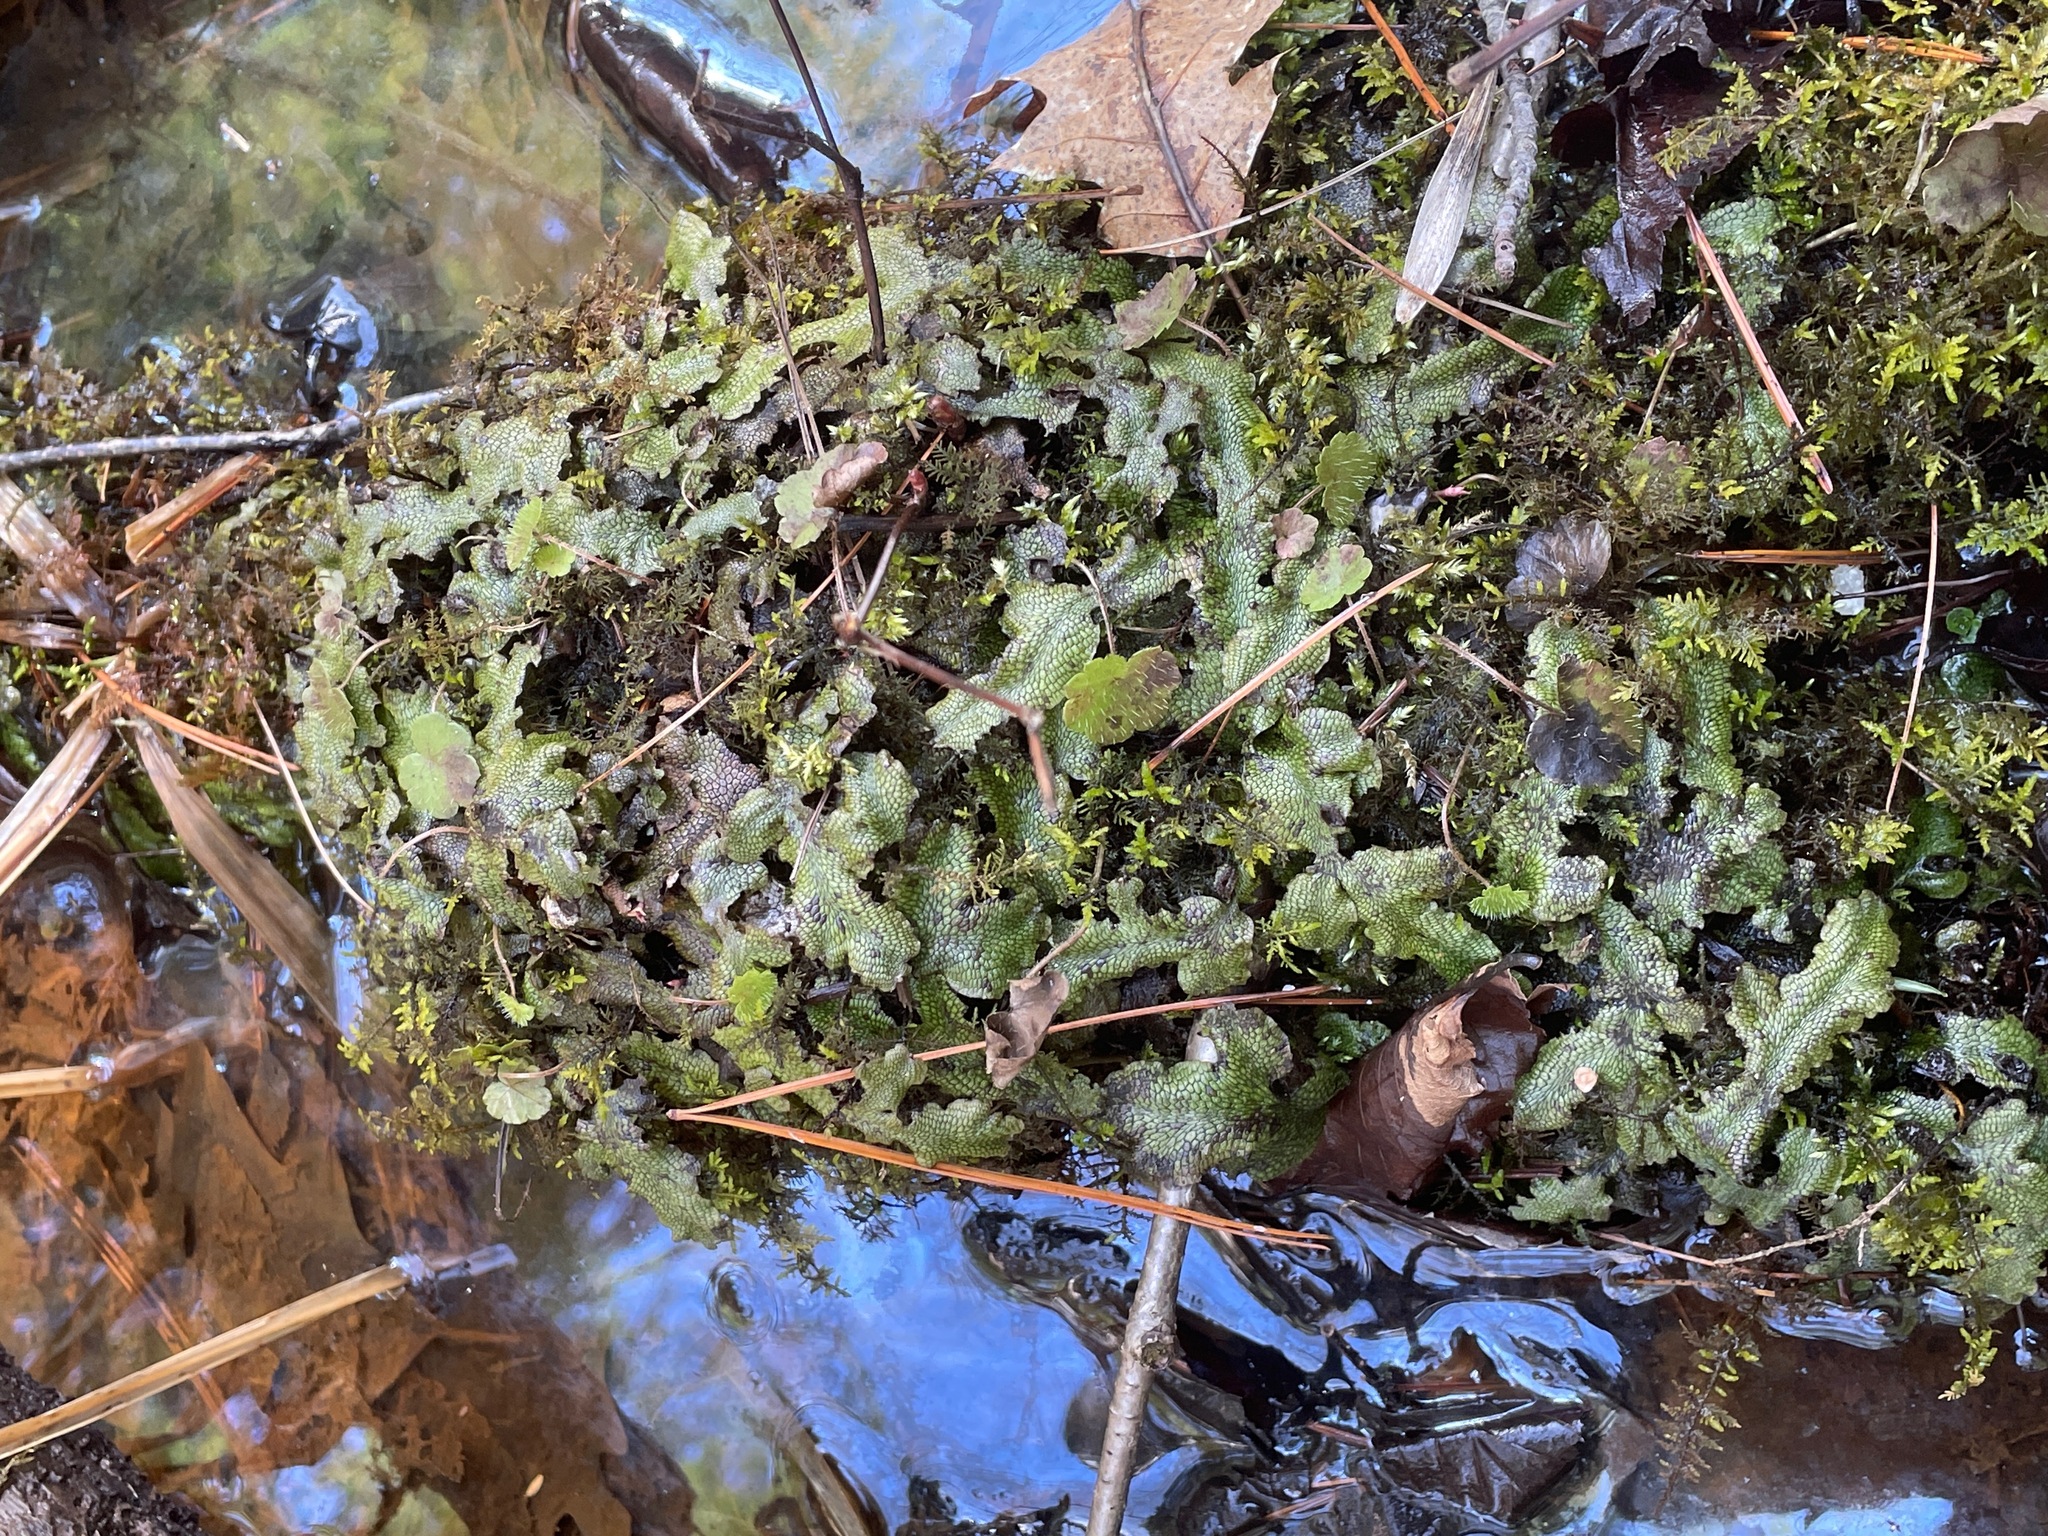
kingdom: Plantae
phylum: Marchantiophyta
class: Marchantiopsida
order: Marchantiales
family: Conocephalaceae
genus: Conocephalum
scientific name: Conocephalum salebrosum
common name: Cat-tongue liverwort
